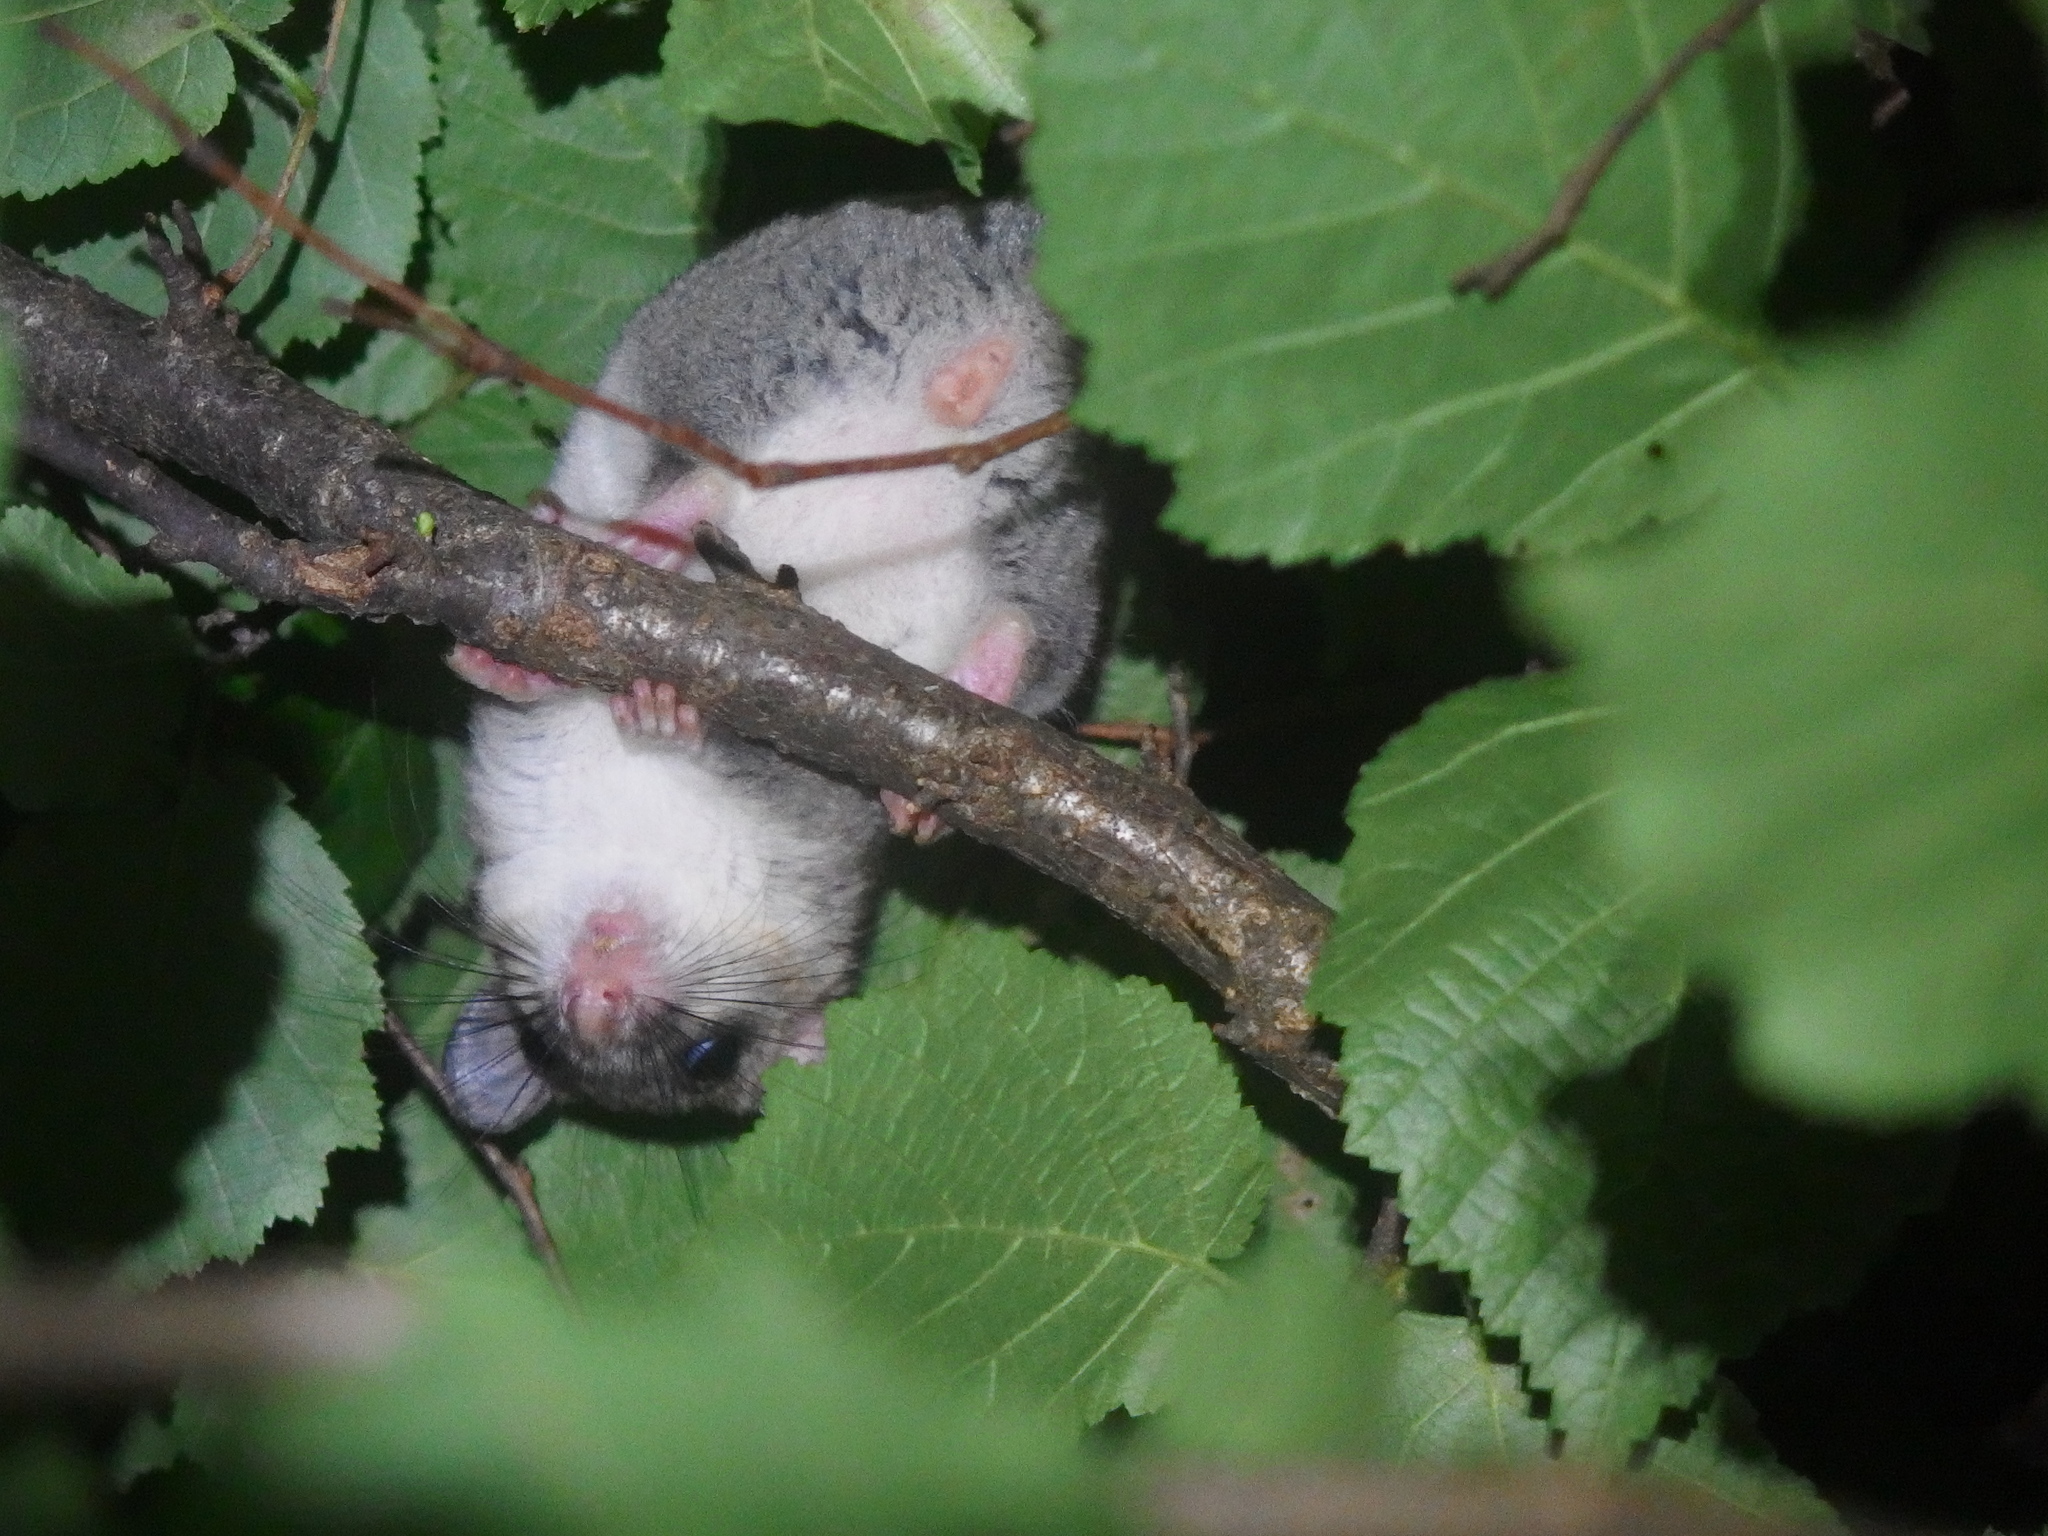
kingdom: Animalia
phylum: Chordata
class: Mammalia
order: Rodentia
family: Gliridae
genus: Glis
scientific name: Glis glis
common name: Fat dormouse
